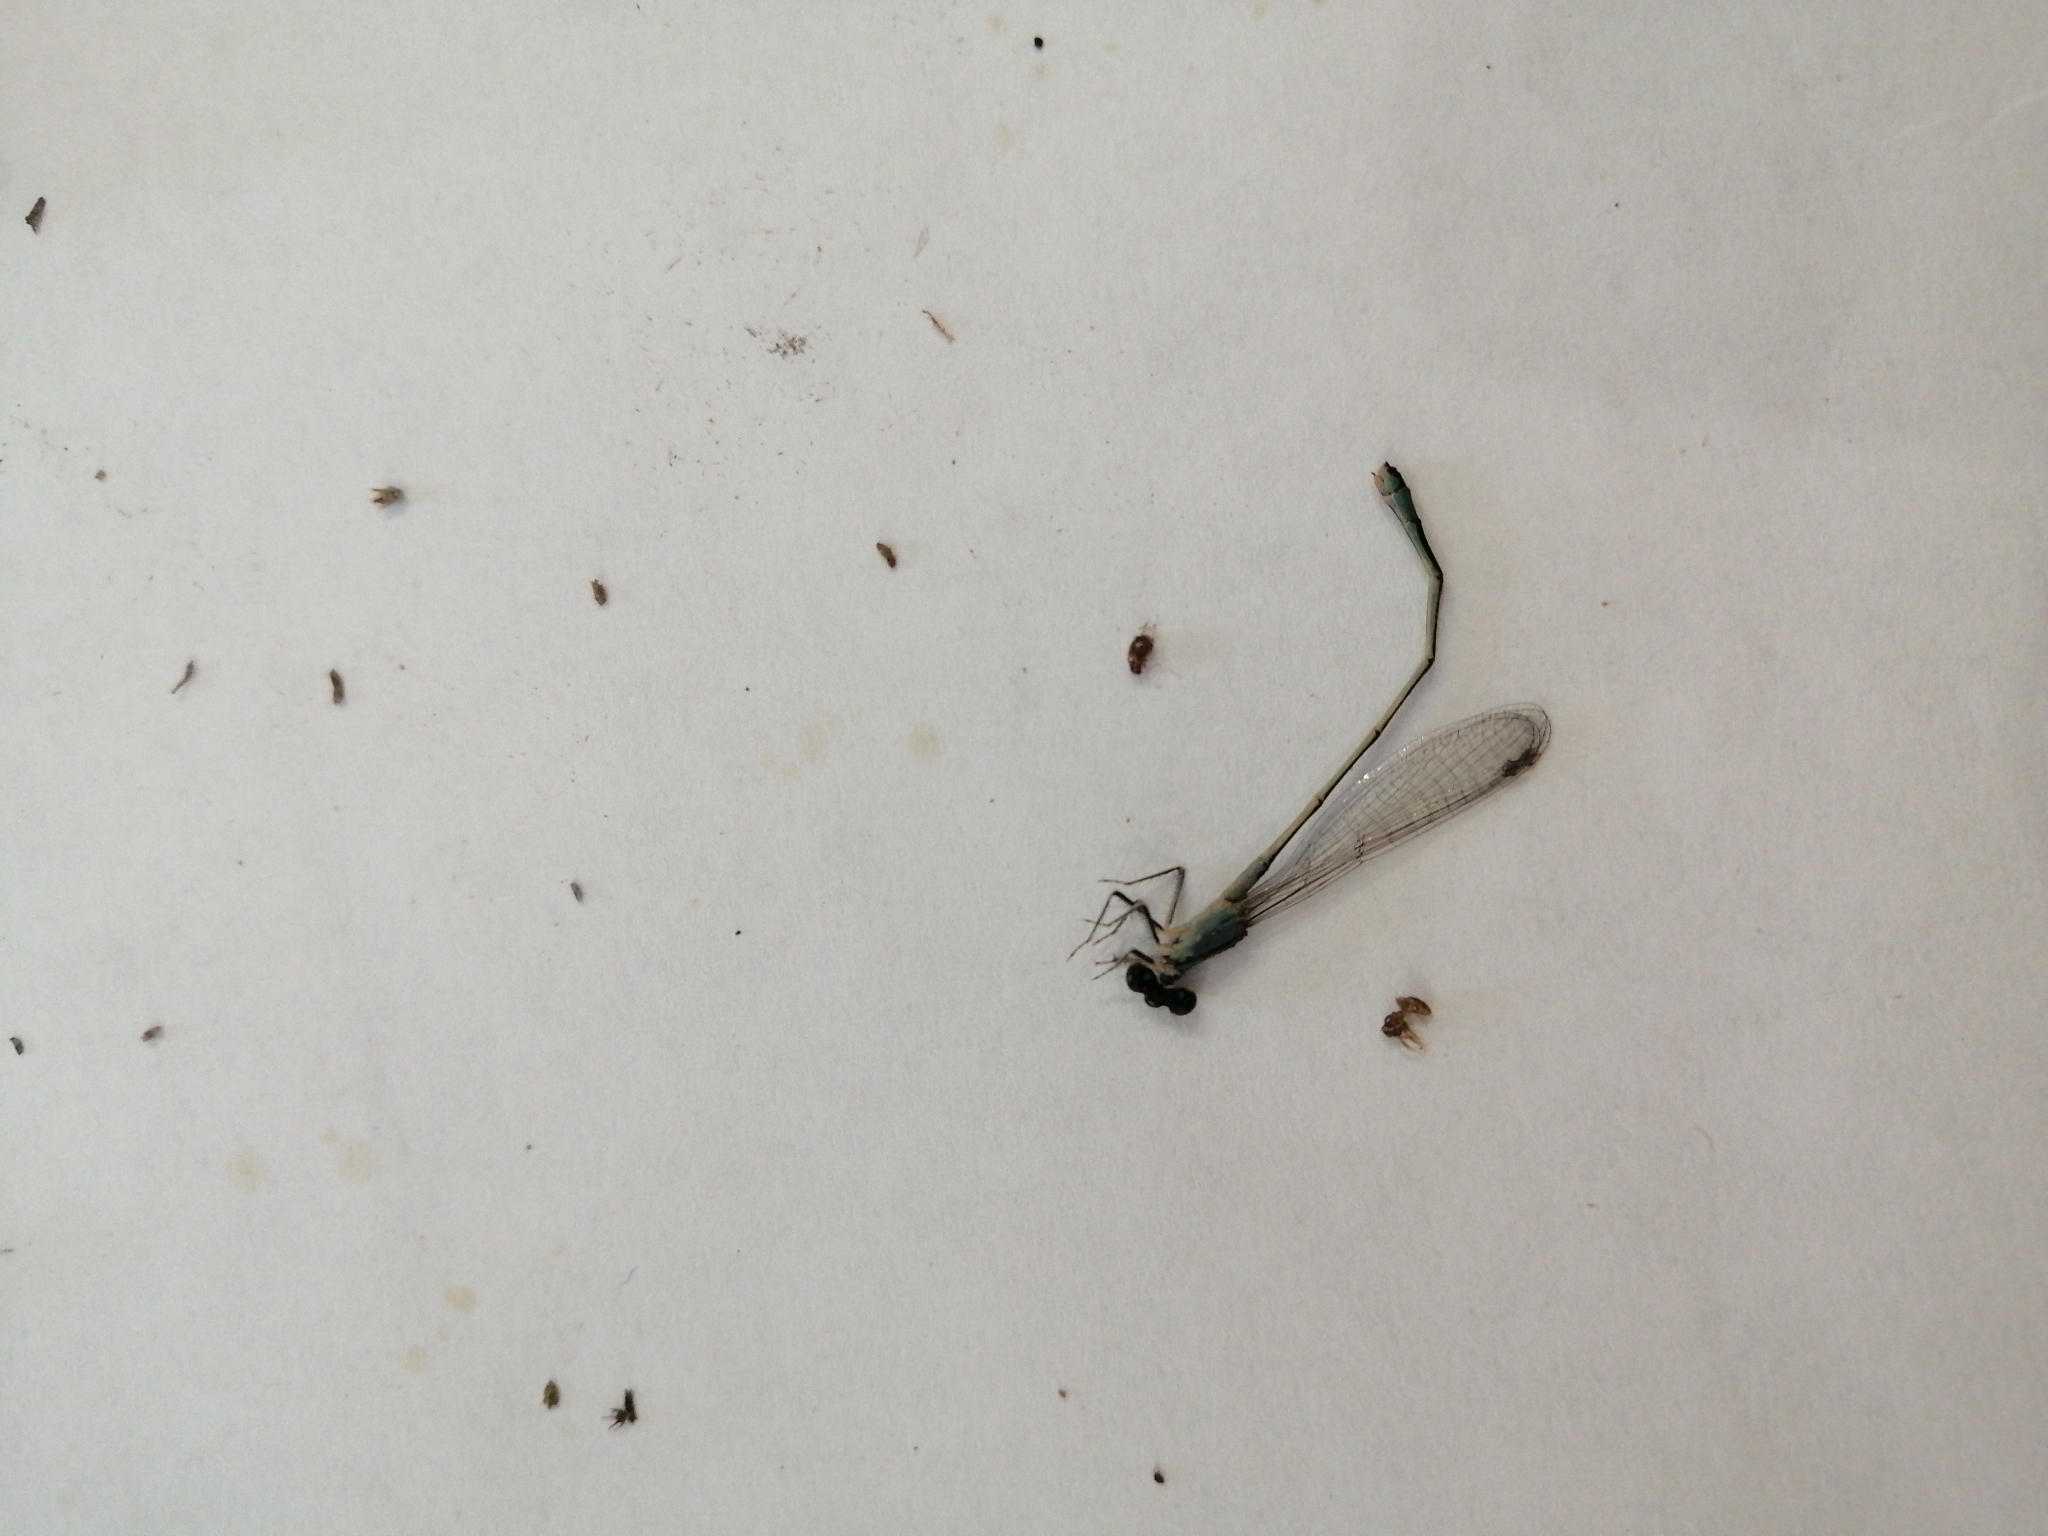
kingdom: Animalia
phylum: Arthropoda
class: Insecta
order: Odonata
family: Coenagrionidae
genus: Ischnura
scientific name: Ischnura elegans
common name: Blue-tailed damselfly
